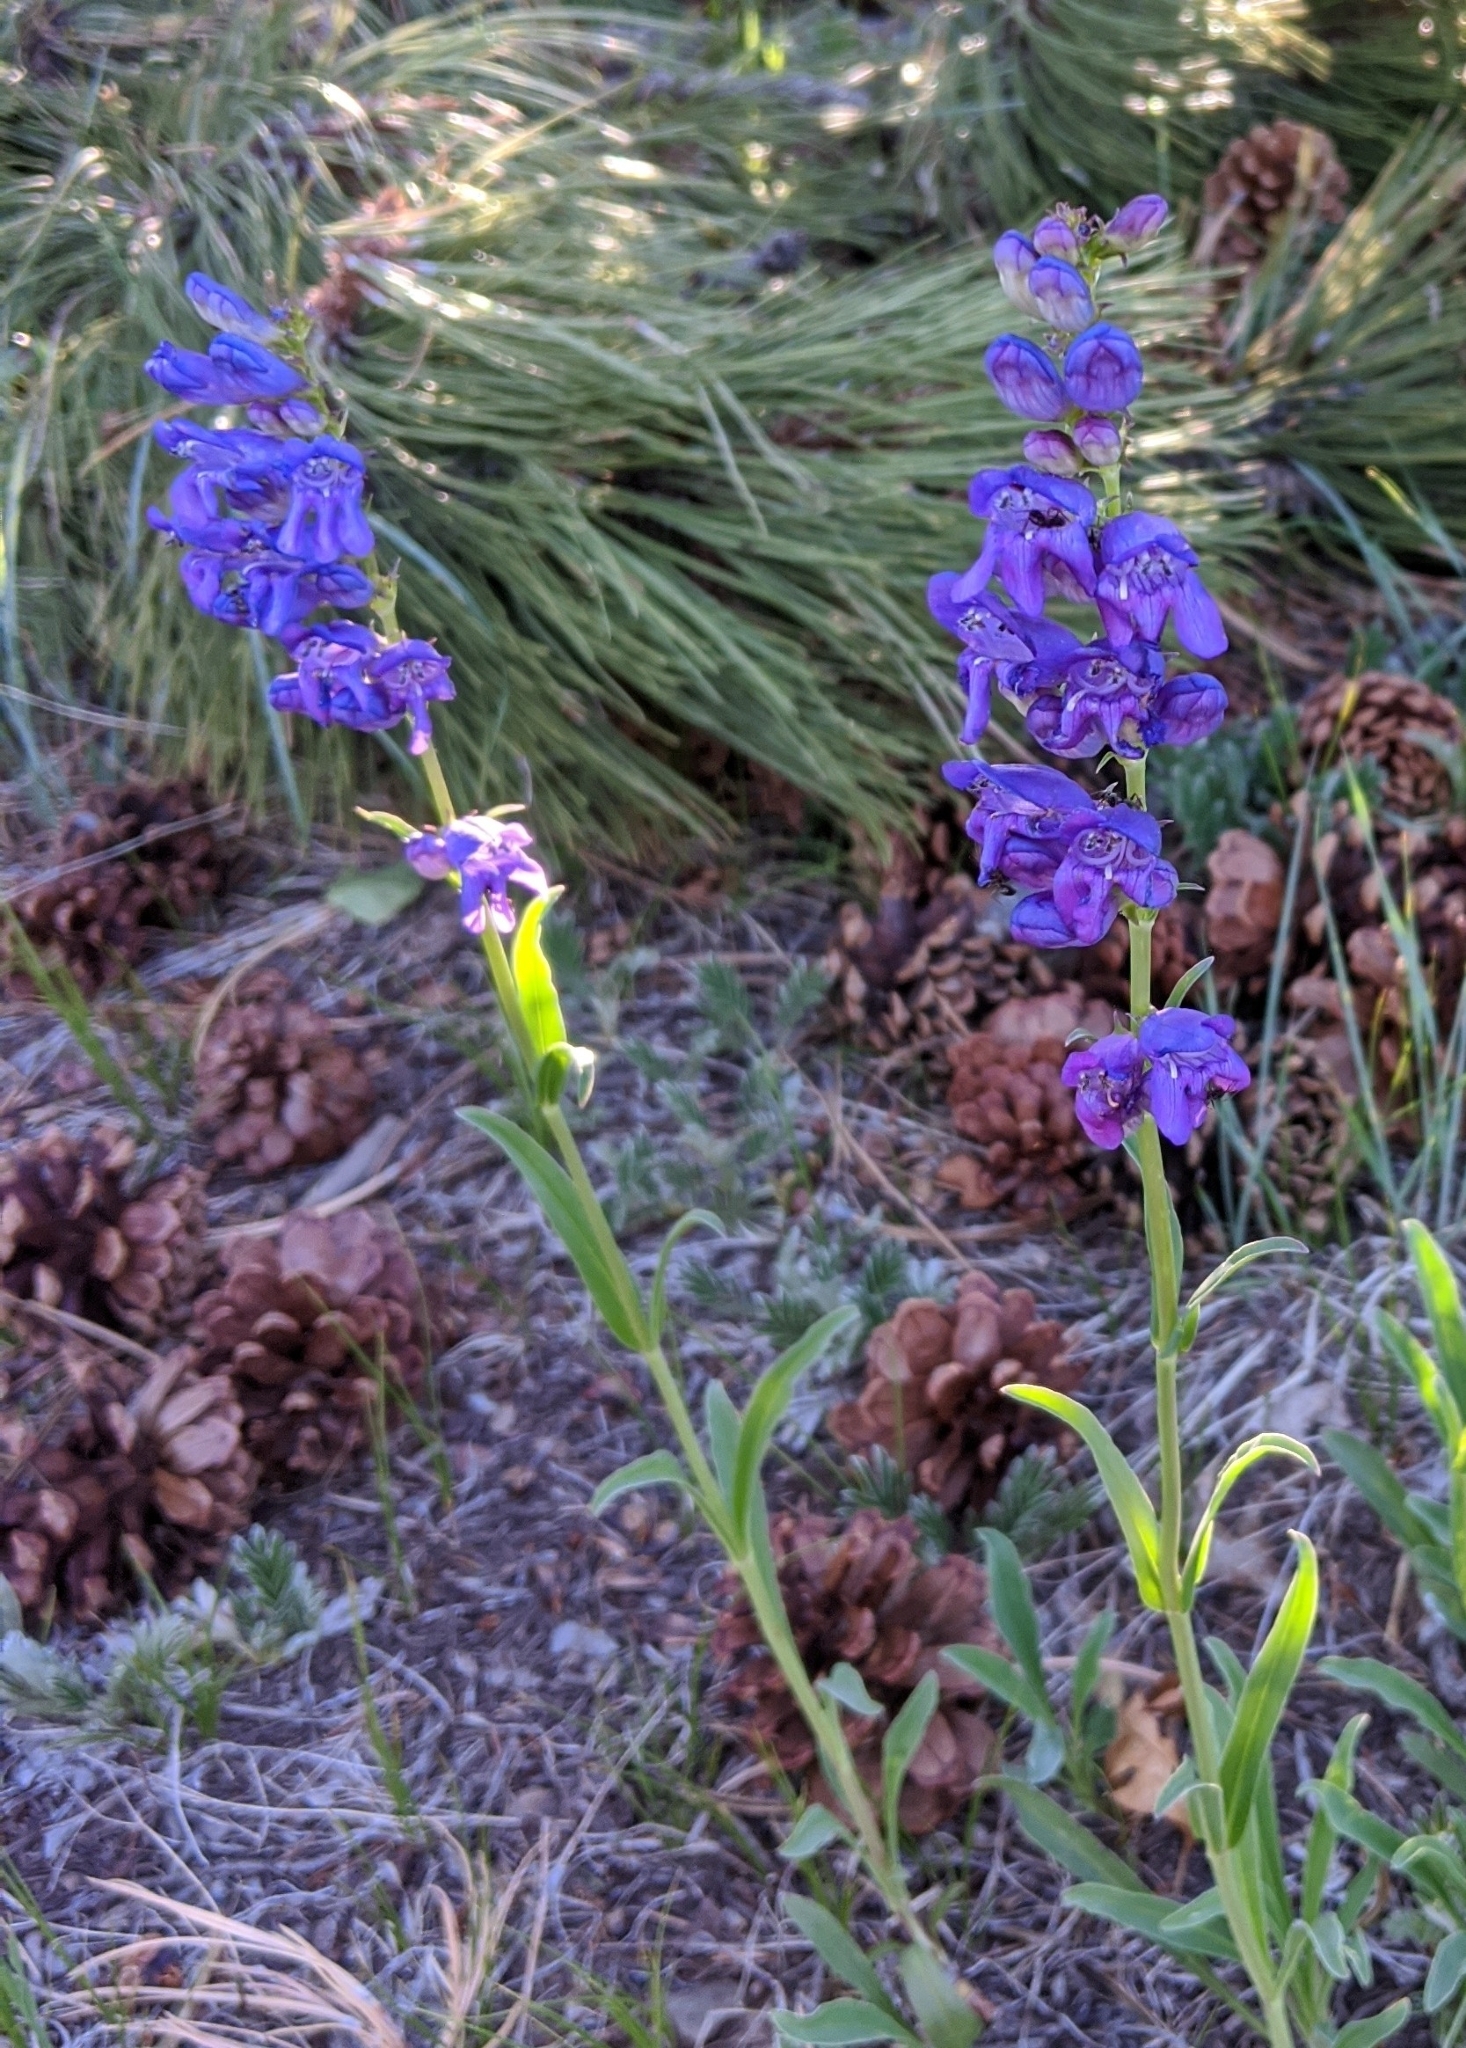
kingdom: Plantae
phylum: Tracheophyta
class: Magnoliopsida
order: Lamiales
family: Plantaginaceae
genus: Penstemon
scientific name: Penstemon strictus
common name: Rocky mountain penstemon
